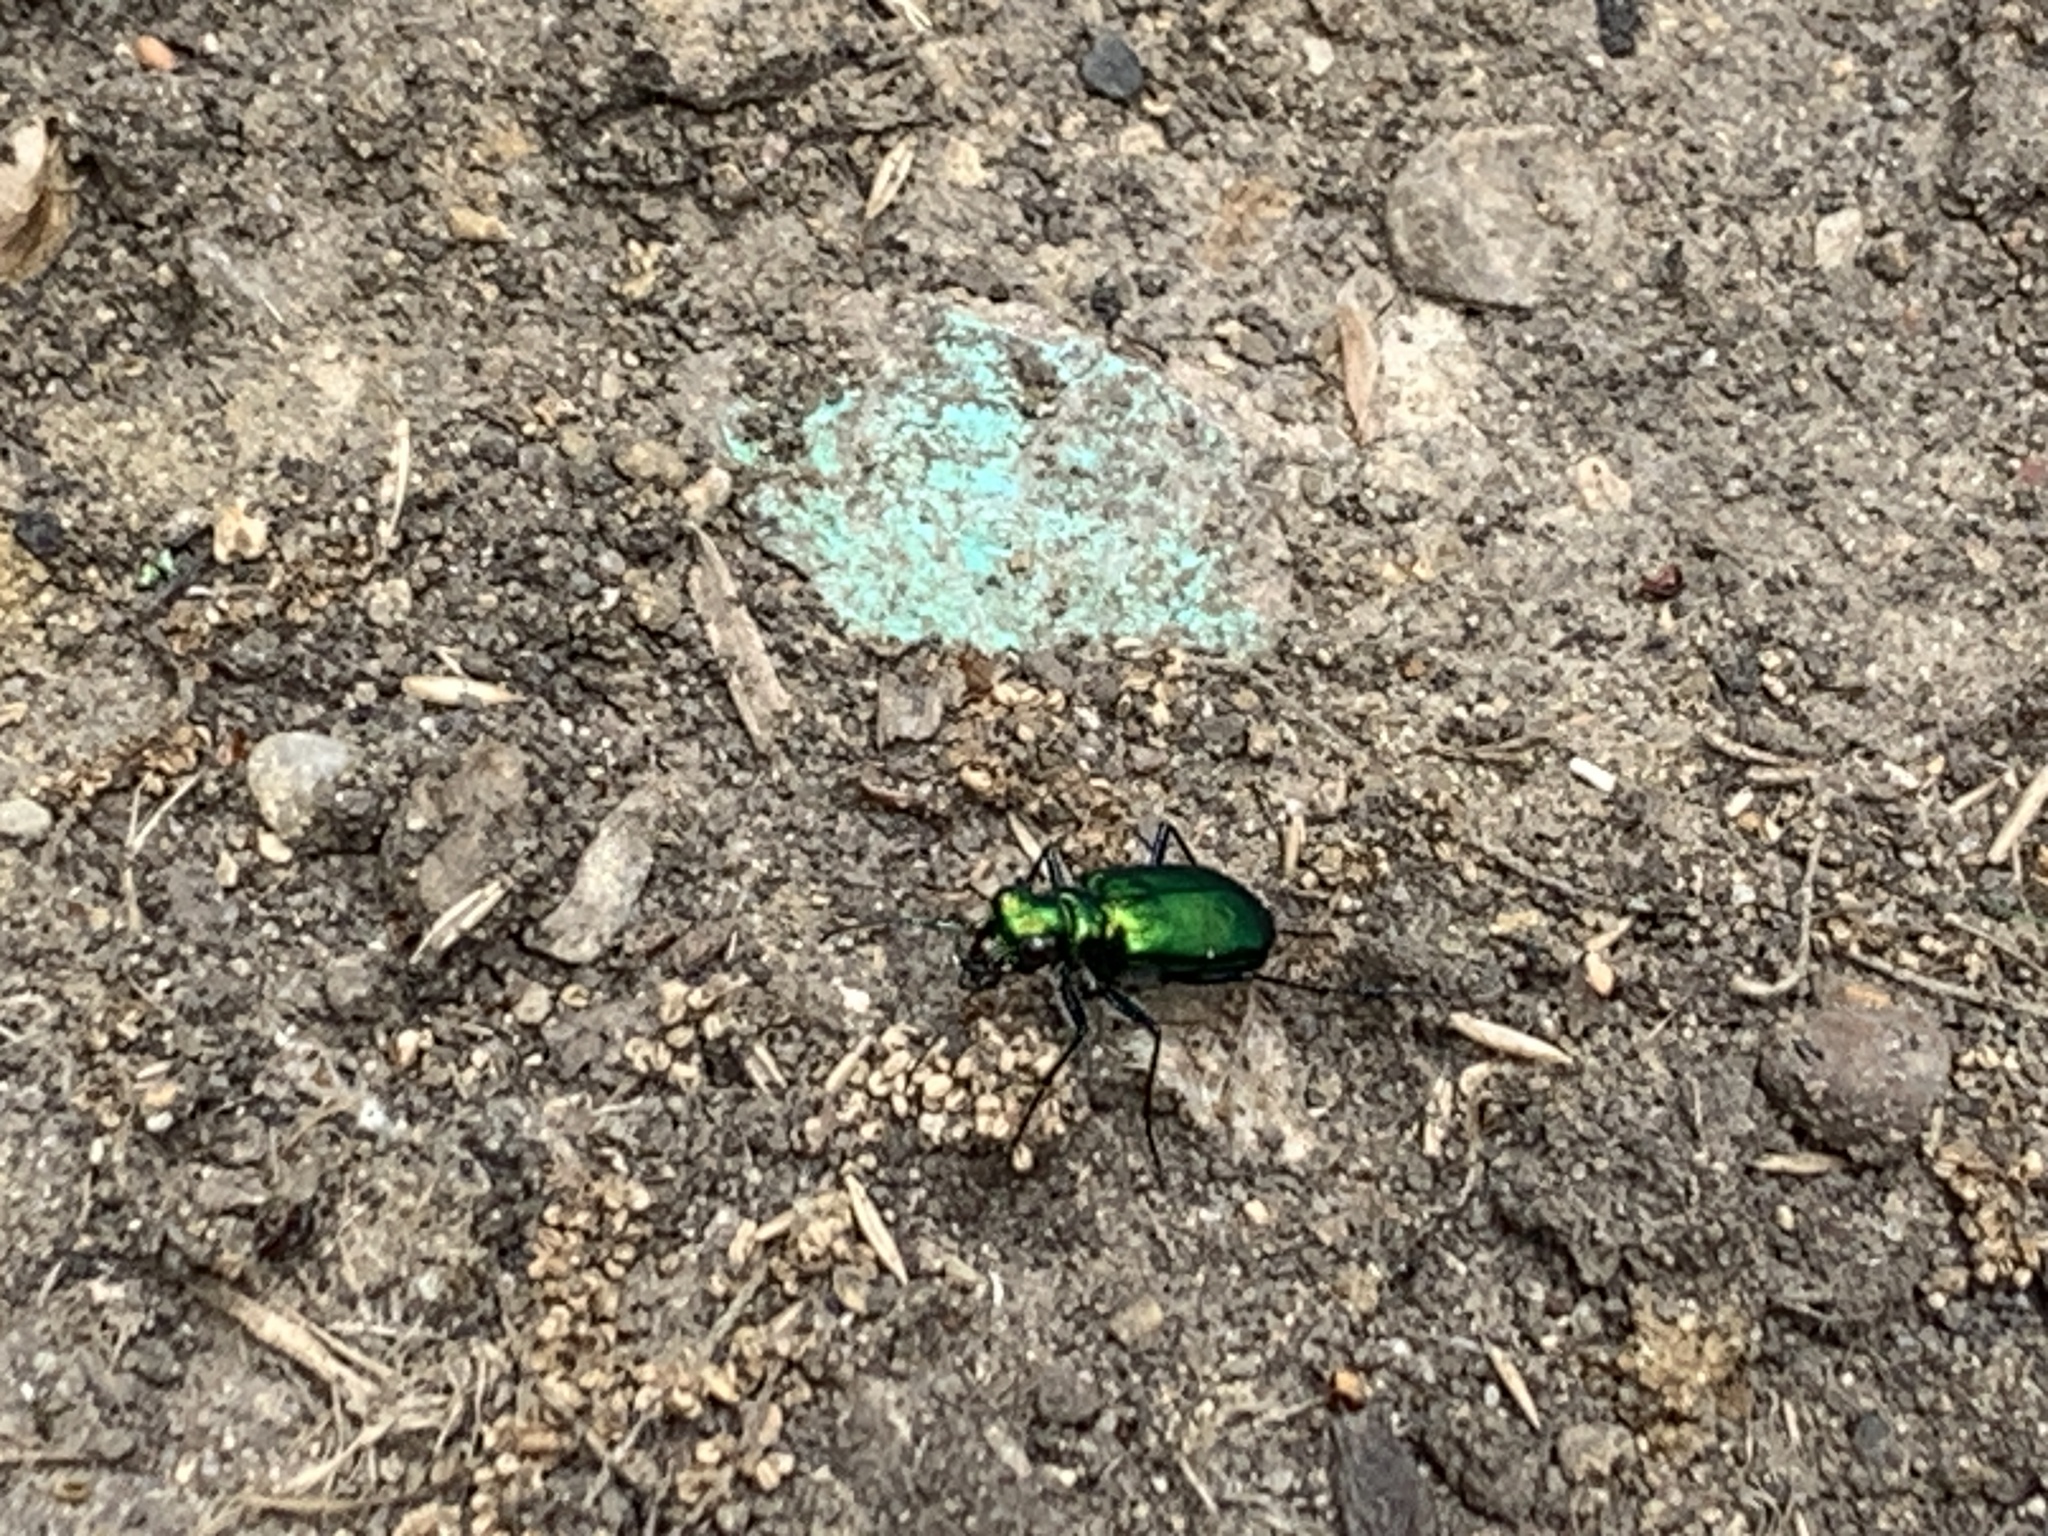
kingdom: Animalia
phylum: Arthropoda
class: Insecta
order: Coleoptera
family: Carabidae
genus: Cicindela
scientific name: Cicindela sexguttata
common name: Six-spotted tiger beetle
